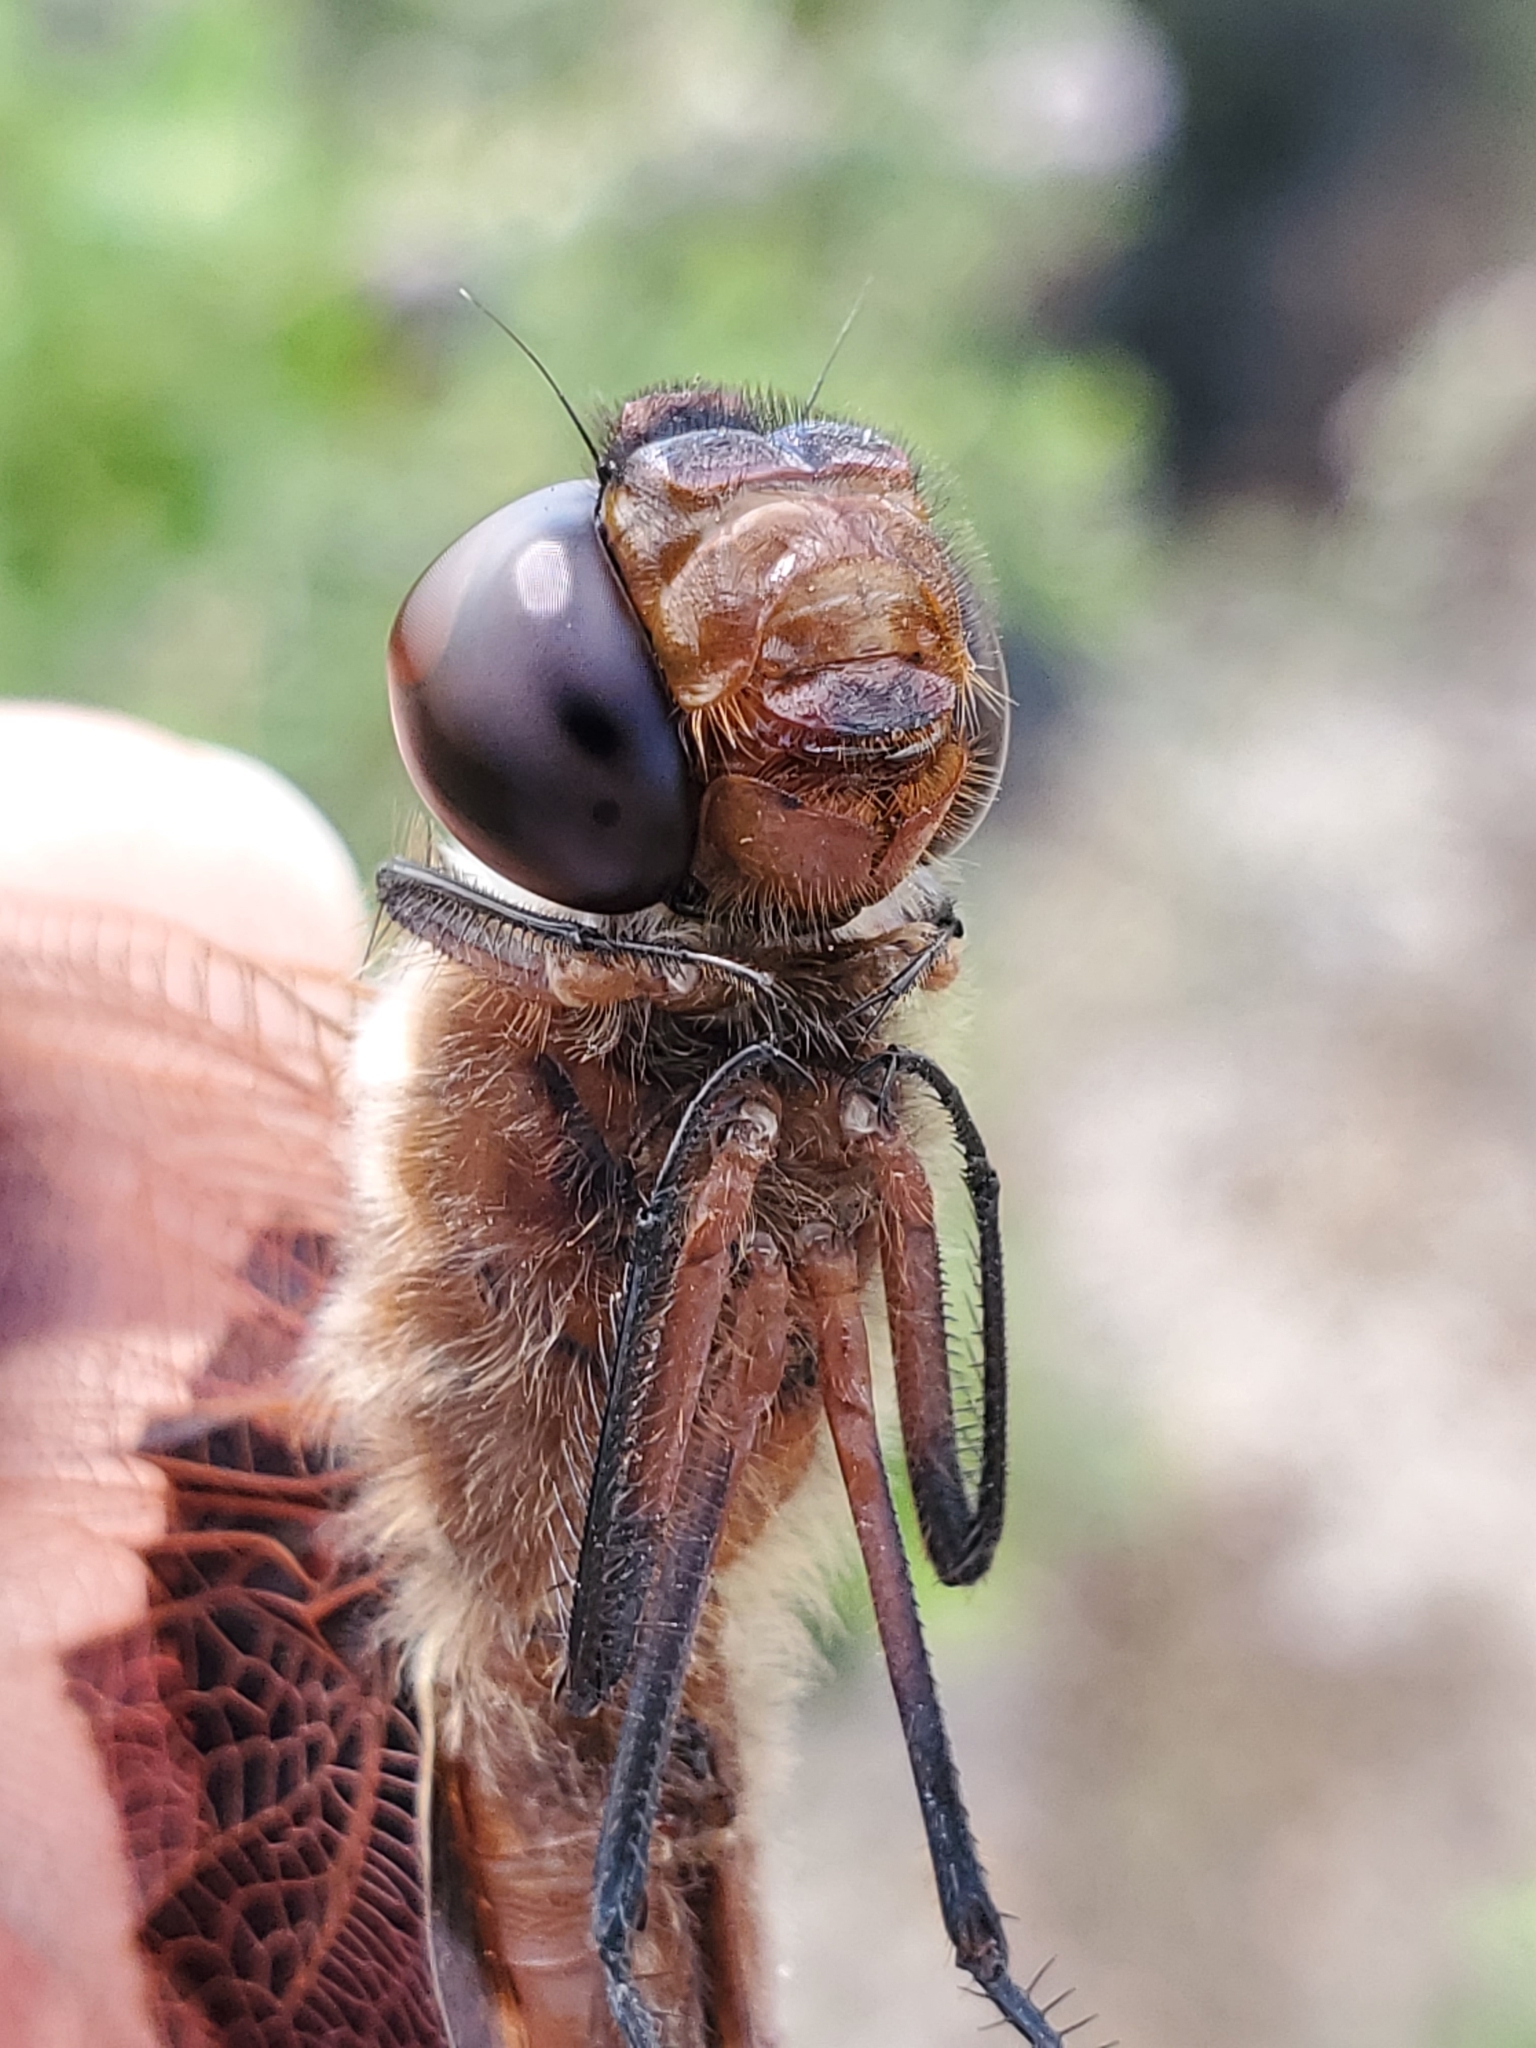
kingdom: Animalia
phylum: Arthropoda
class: Insecta
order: Odonata
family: Libellulidae
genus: Tramea
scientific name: Tramea carolina
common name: Carolina saddlebags
